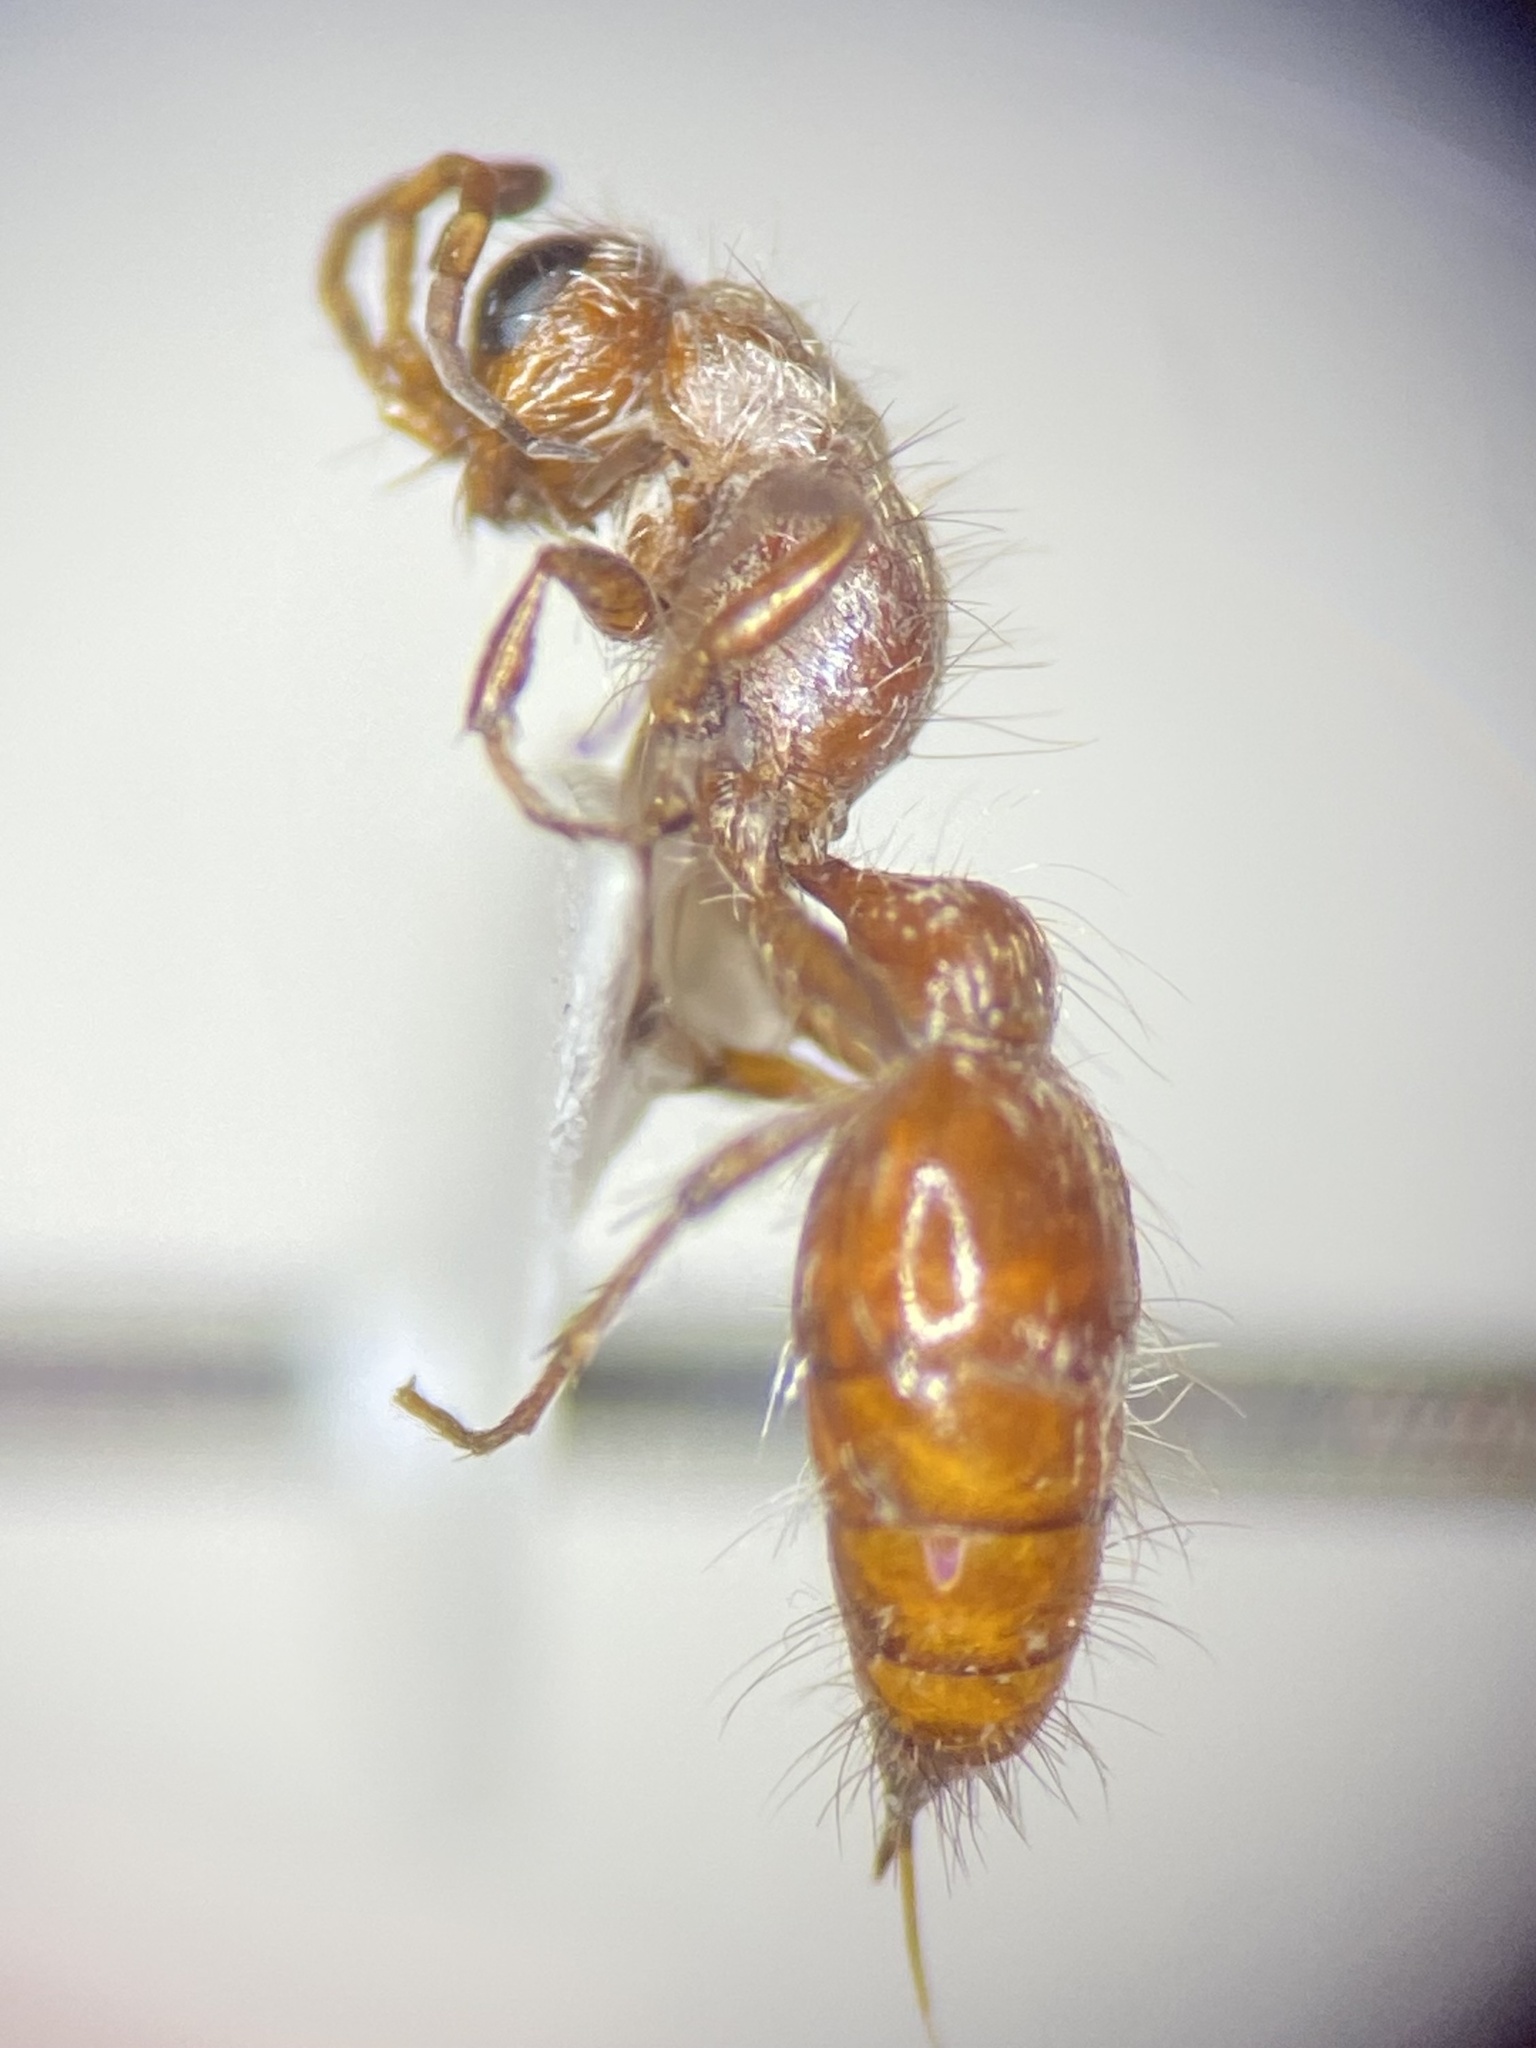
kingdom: Animalia
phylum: Arthropoda
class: Insecta
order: Hymenoptera
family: Mutillidae
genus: Typhoctes
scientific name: Typhoctes
